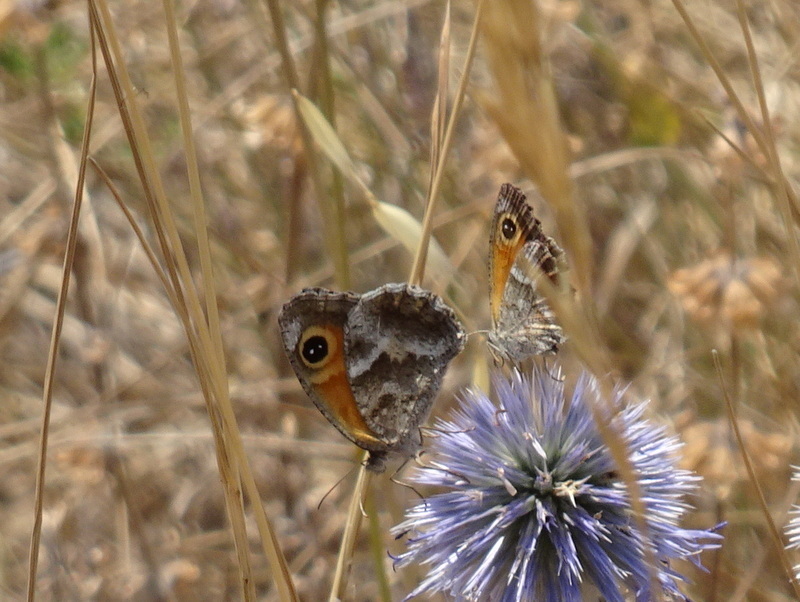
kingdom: Animalia
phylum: Arthropoda
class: Insecta
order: Lepidoptera
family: Nymphalidae
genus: Pyronia
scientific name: Pyronia cecilia
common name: Southern gatekeeper
